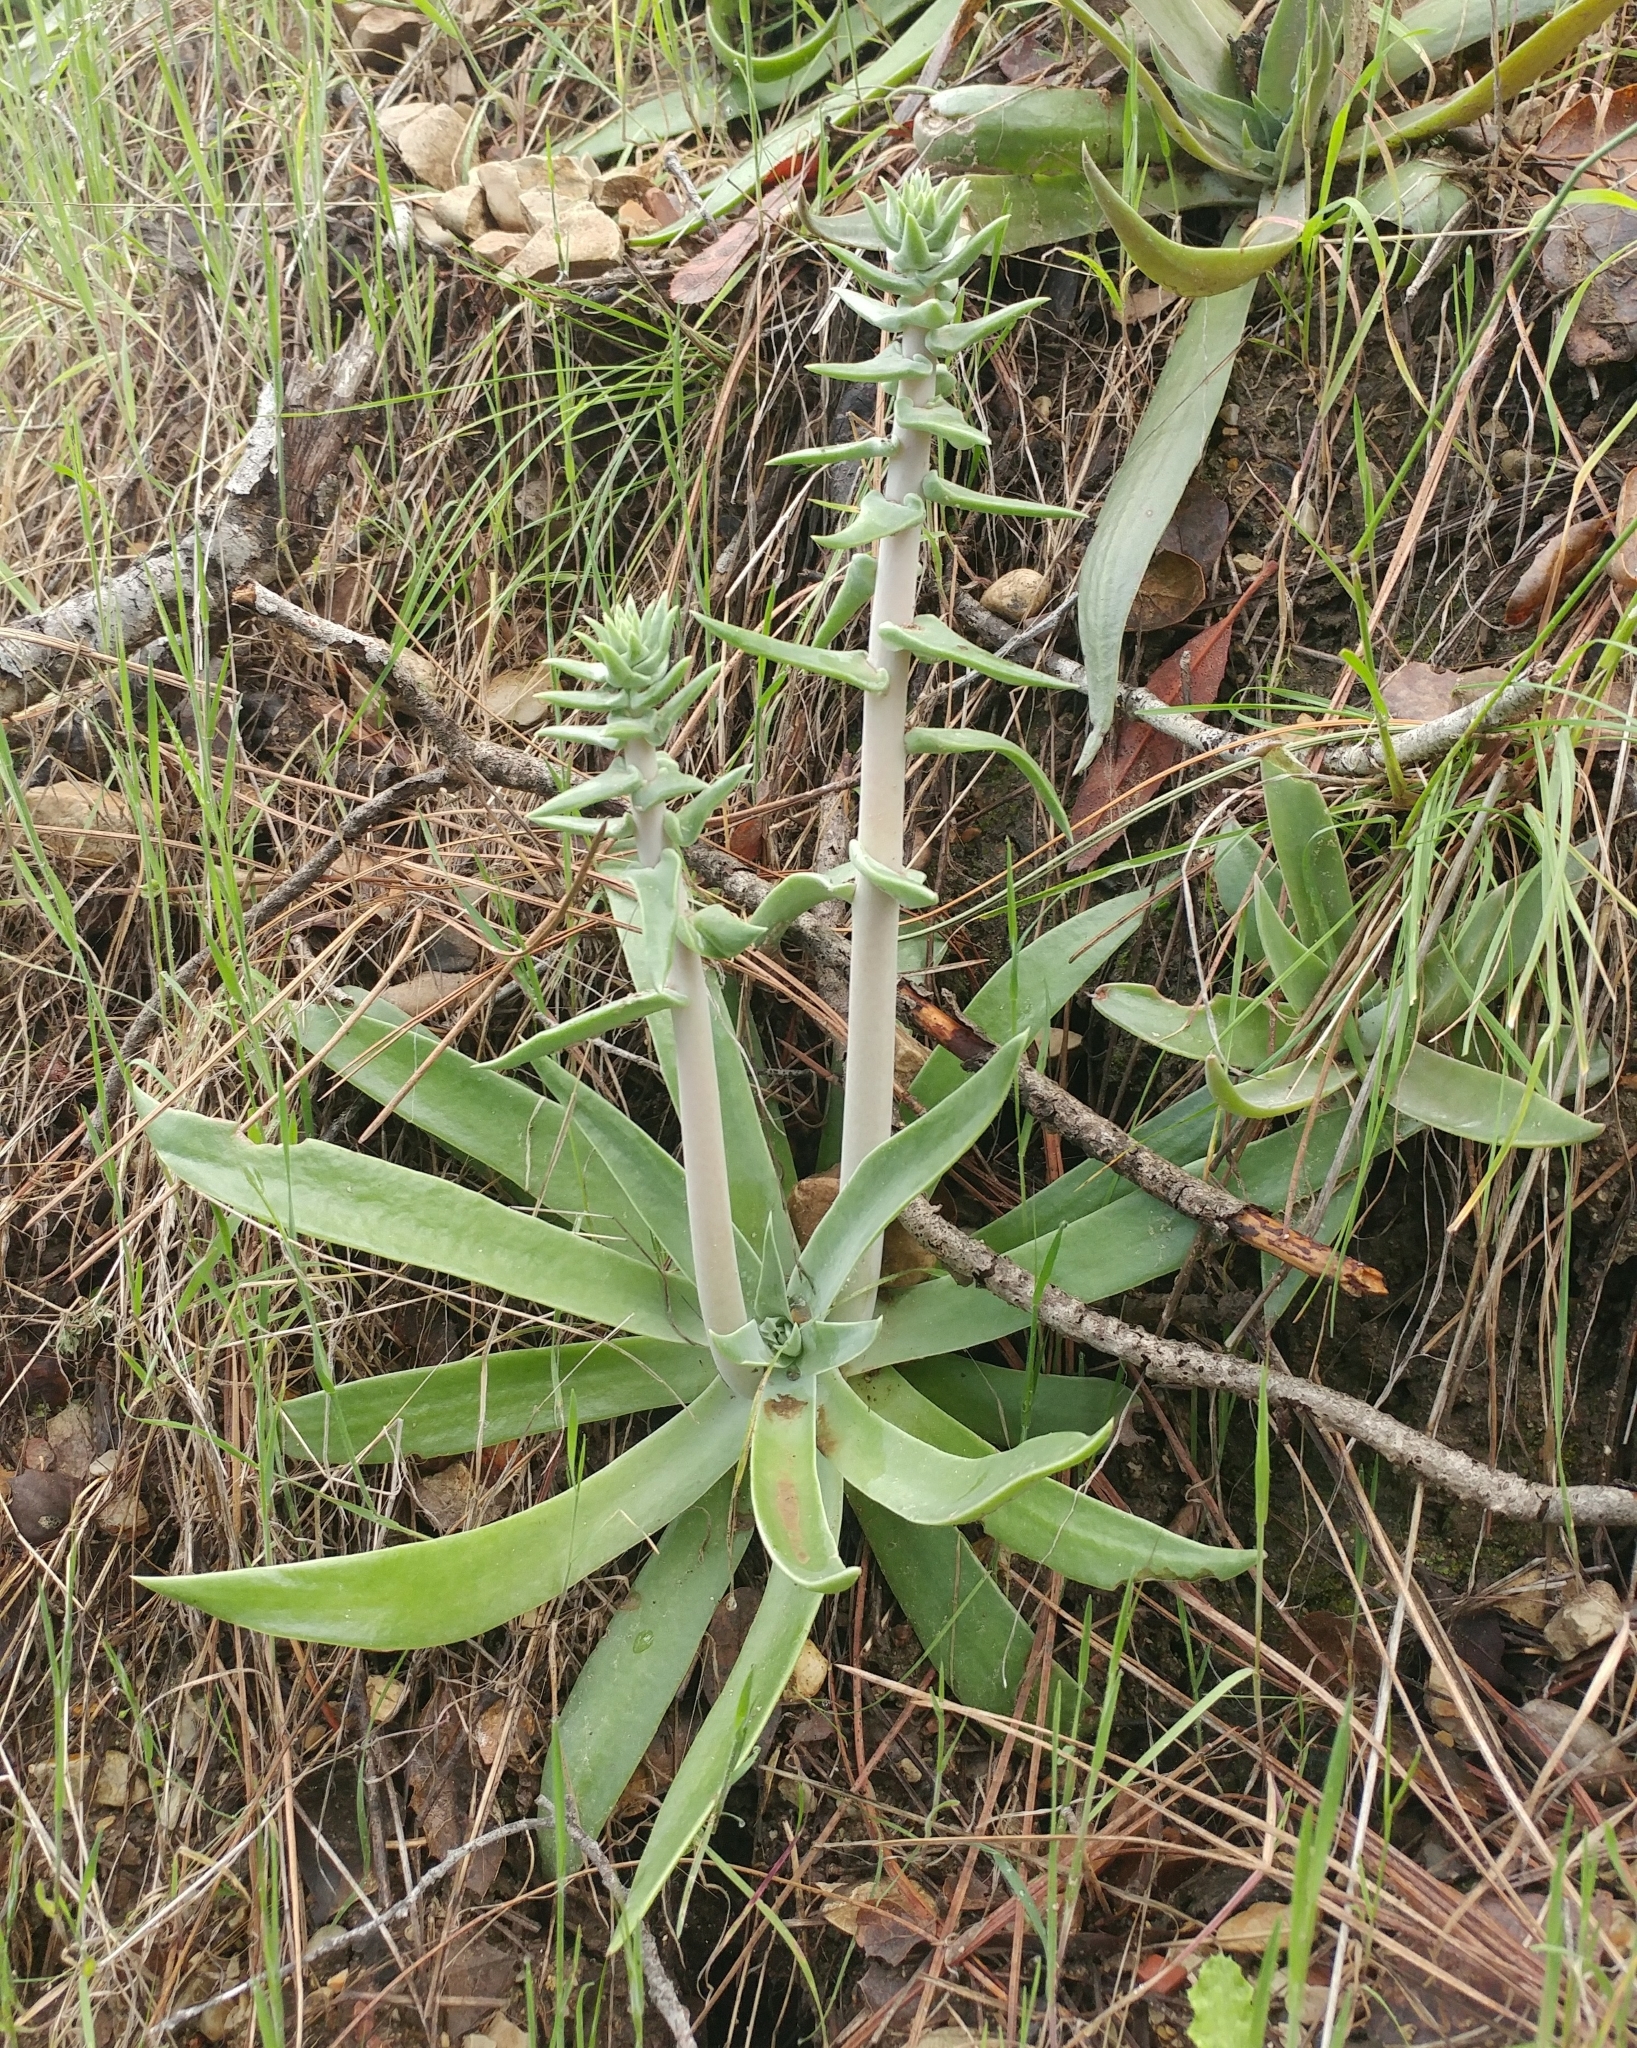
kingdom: Plantae
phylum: Tracheophyta
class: Magnoliopsida
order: Saxifragales
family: Crassulaceae
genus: Dudleya
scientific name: Dudleya lanceolata
